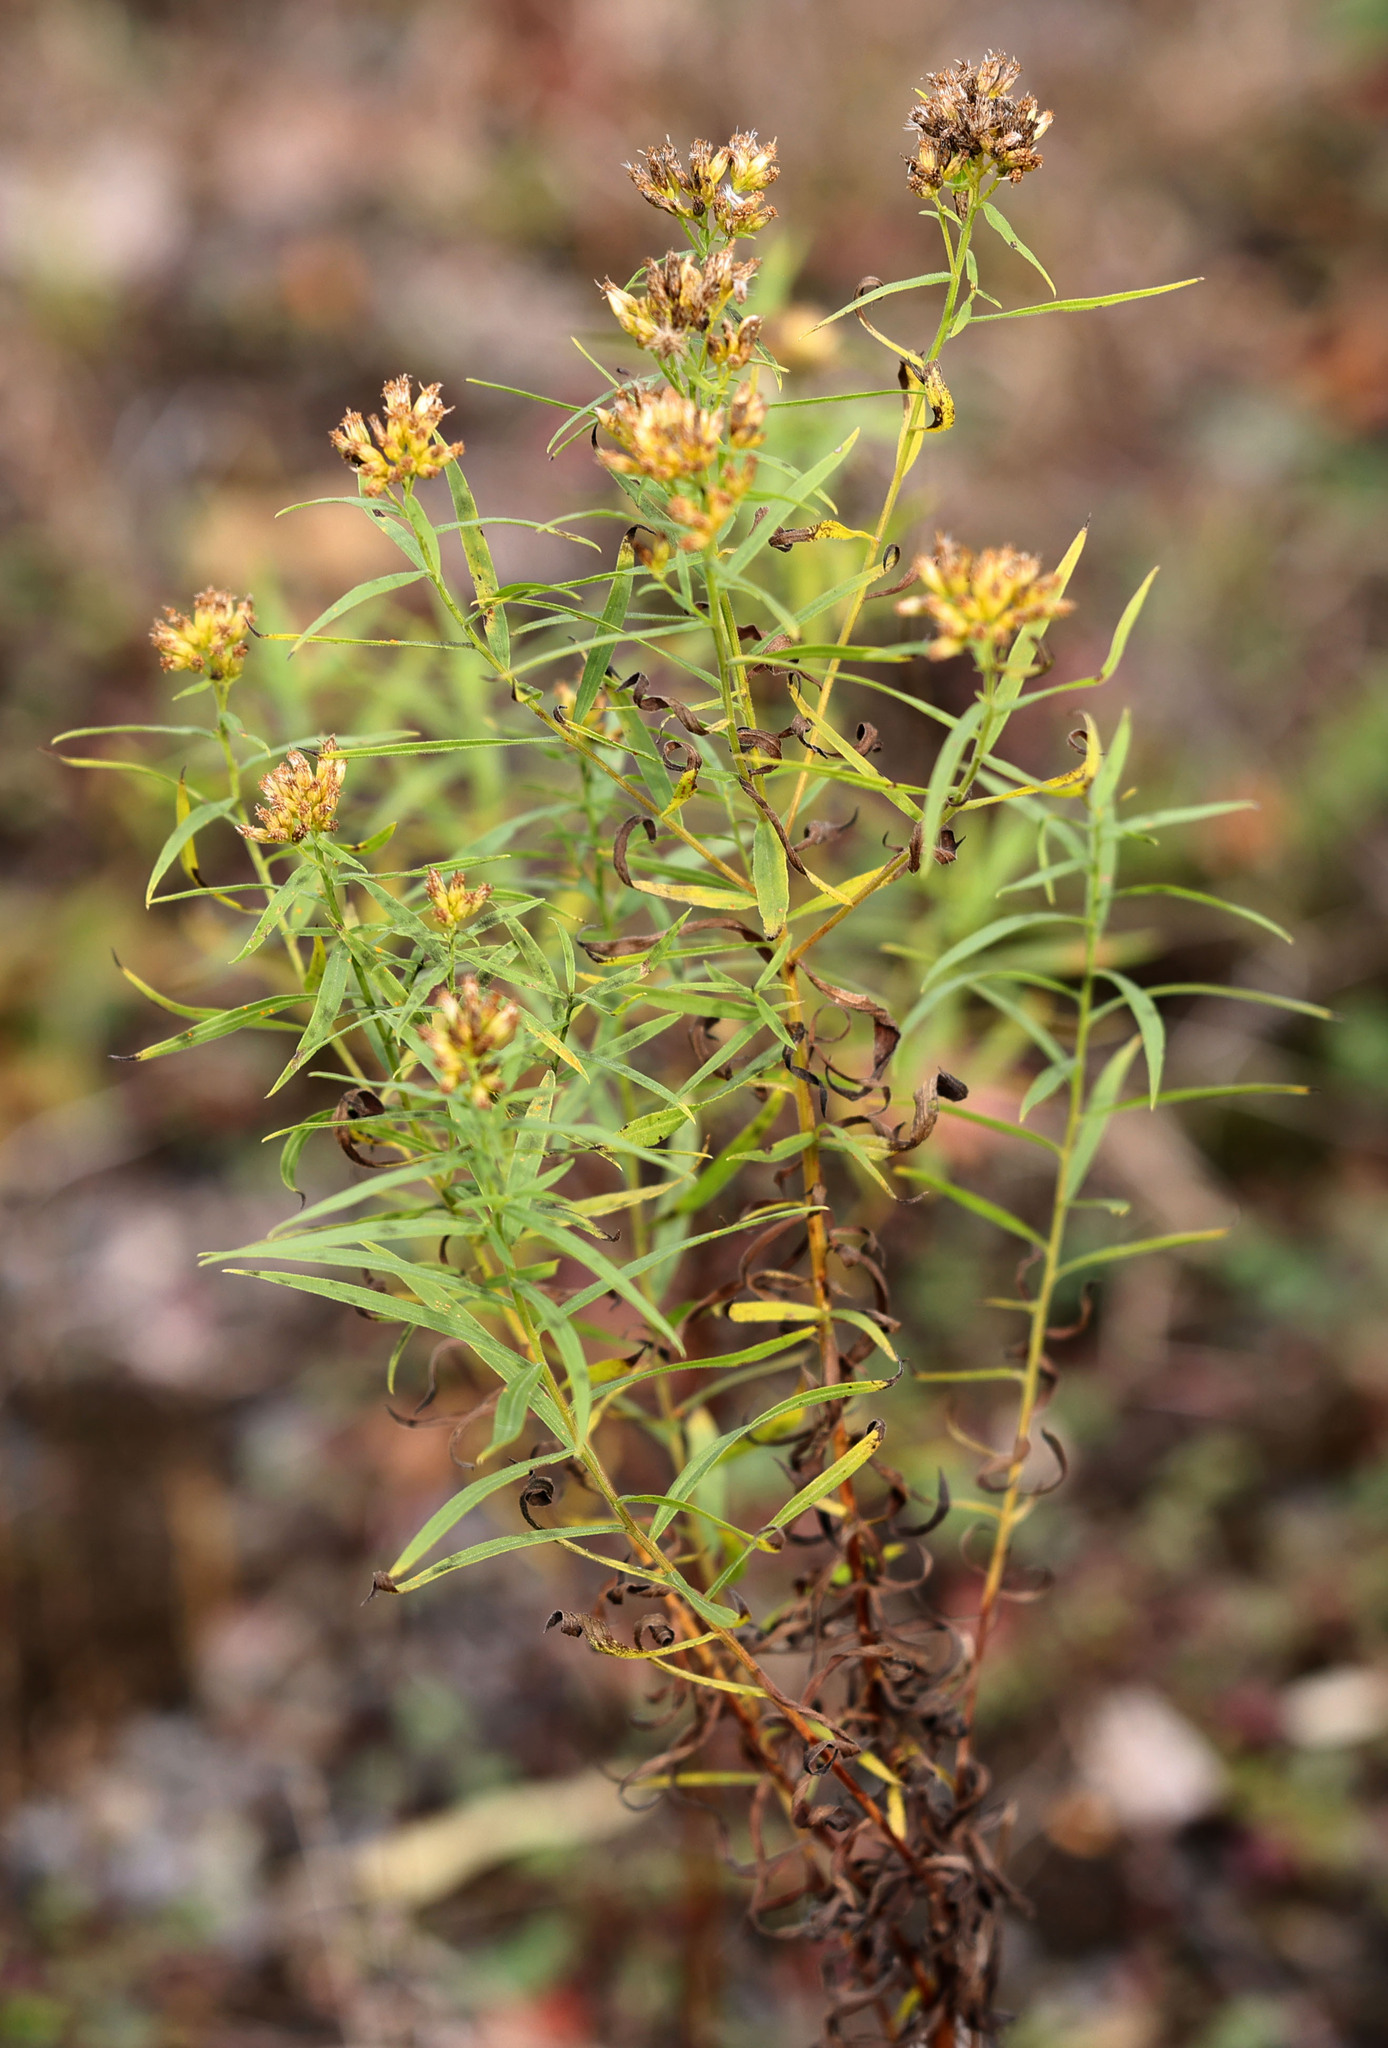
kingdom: Plantae
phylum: Tracheophyta
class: Magnoliopsida
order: Asterales
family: Asteraceae
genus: Euthamia
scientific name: Euthamia graminifolia
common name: Common goldentop
